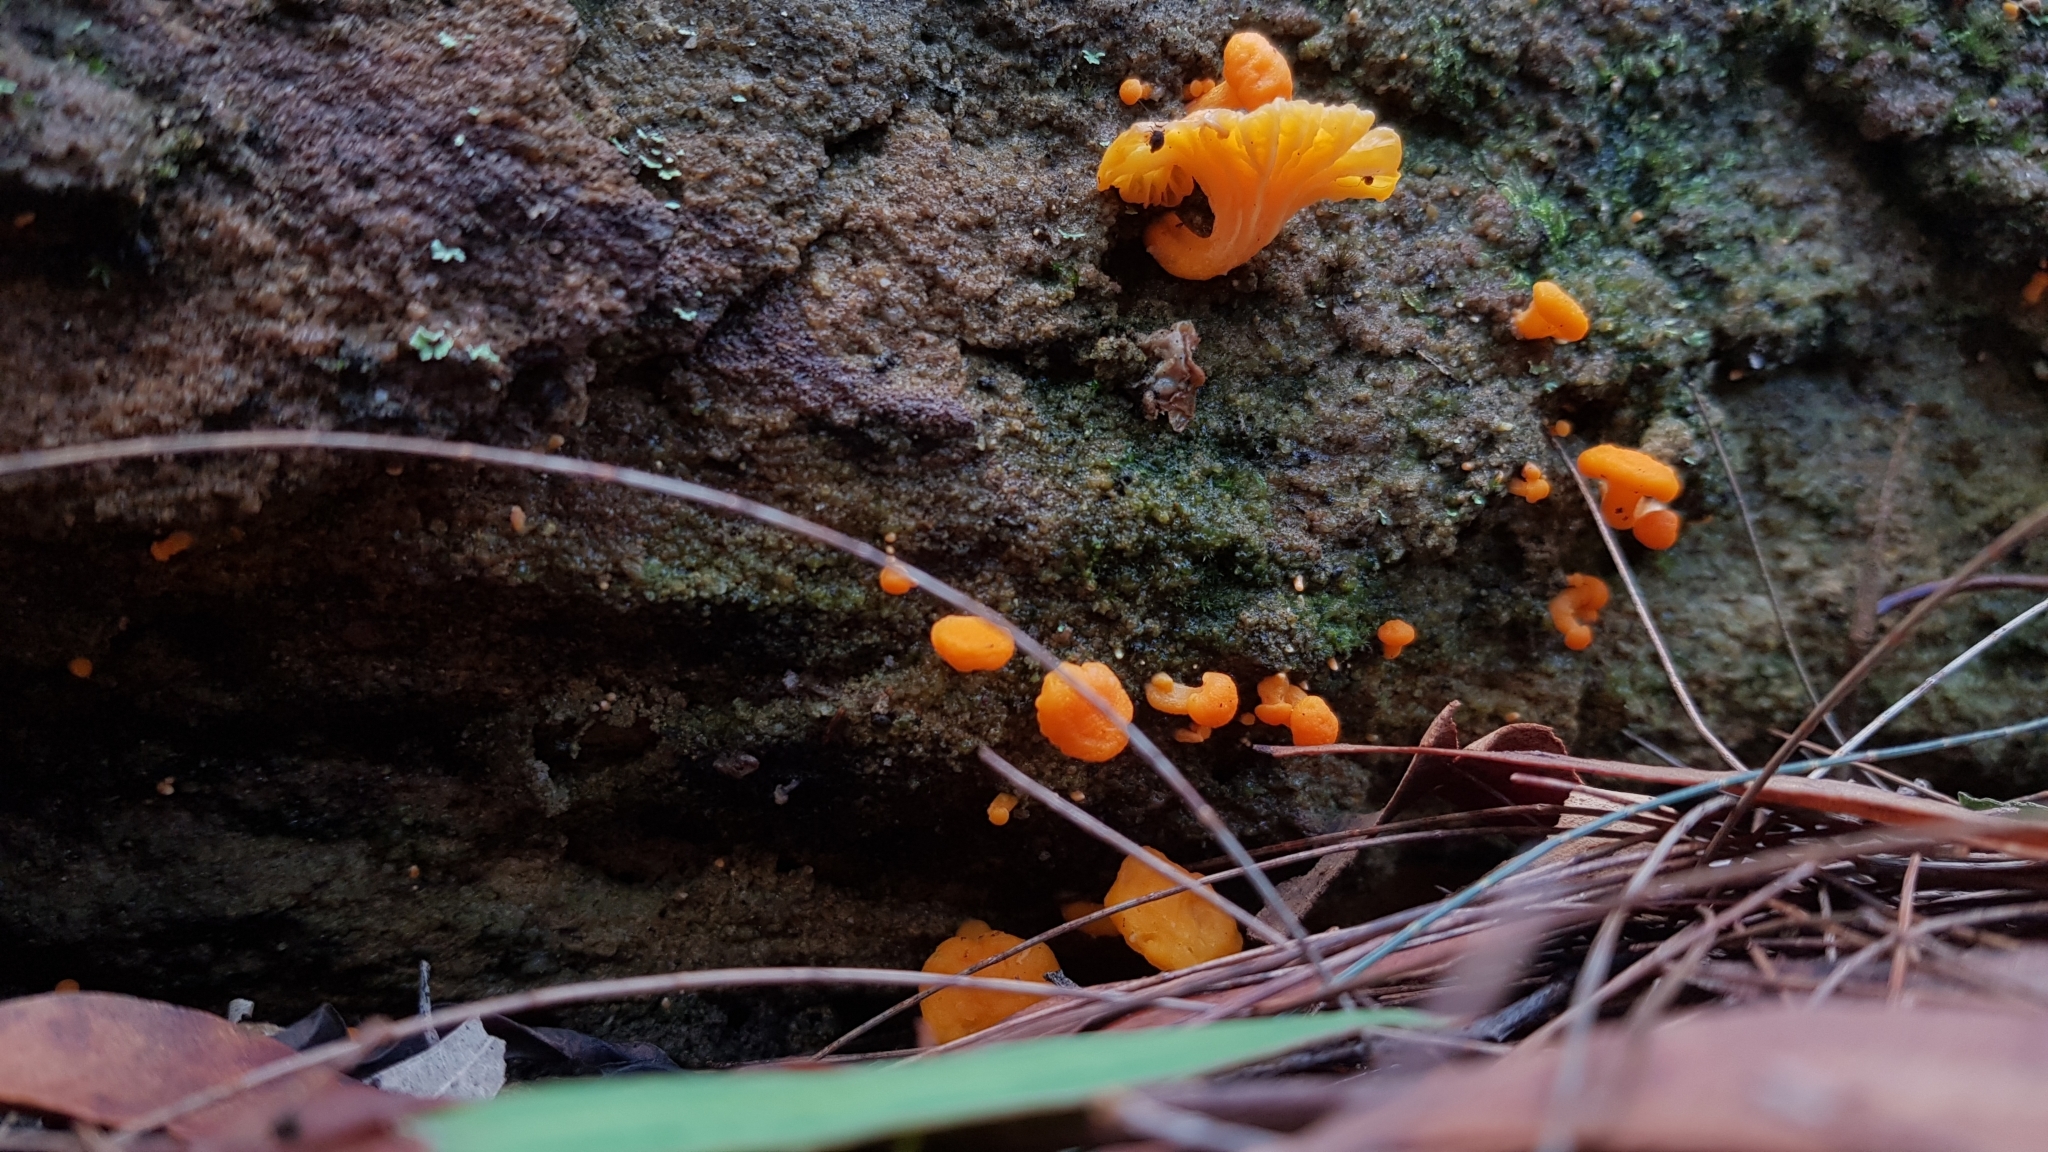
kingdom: Fungi
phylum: Basidiomycota
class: Agaricomycetes
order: Cantharellales
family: Hydnaceae
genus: Cantharellus
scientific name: Cantharellus
